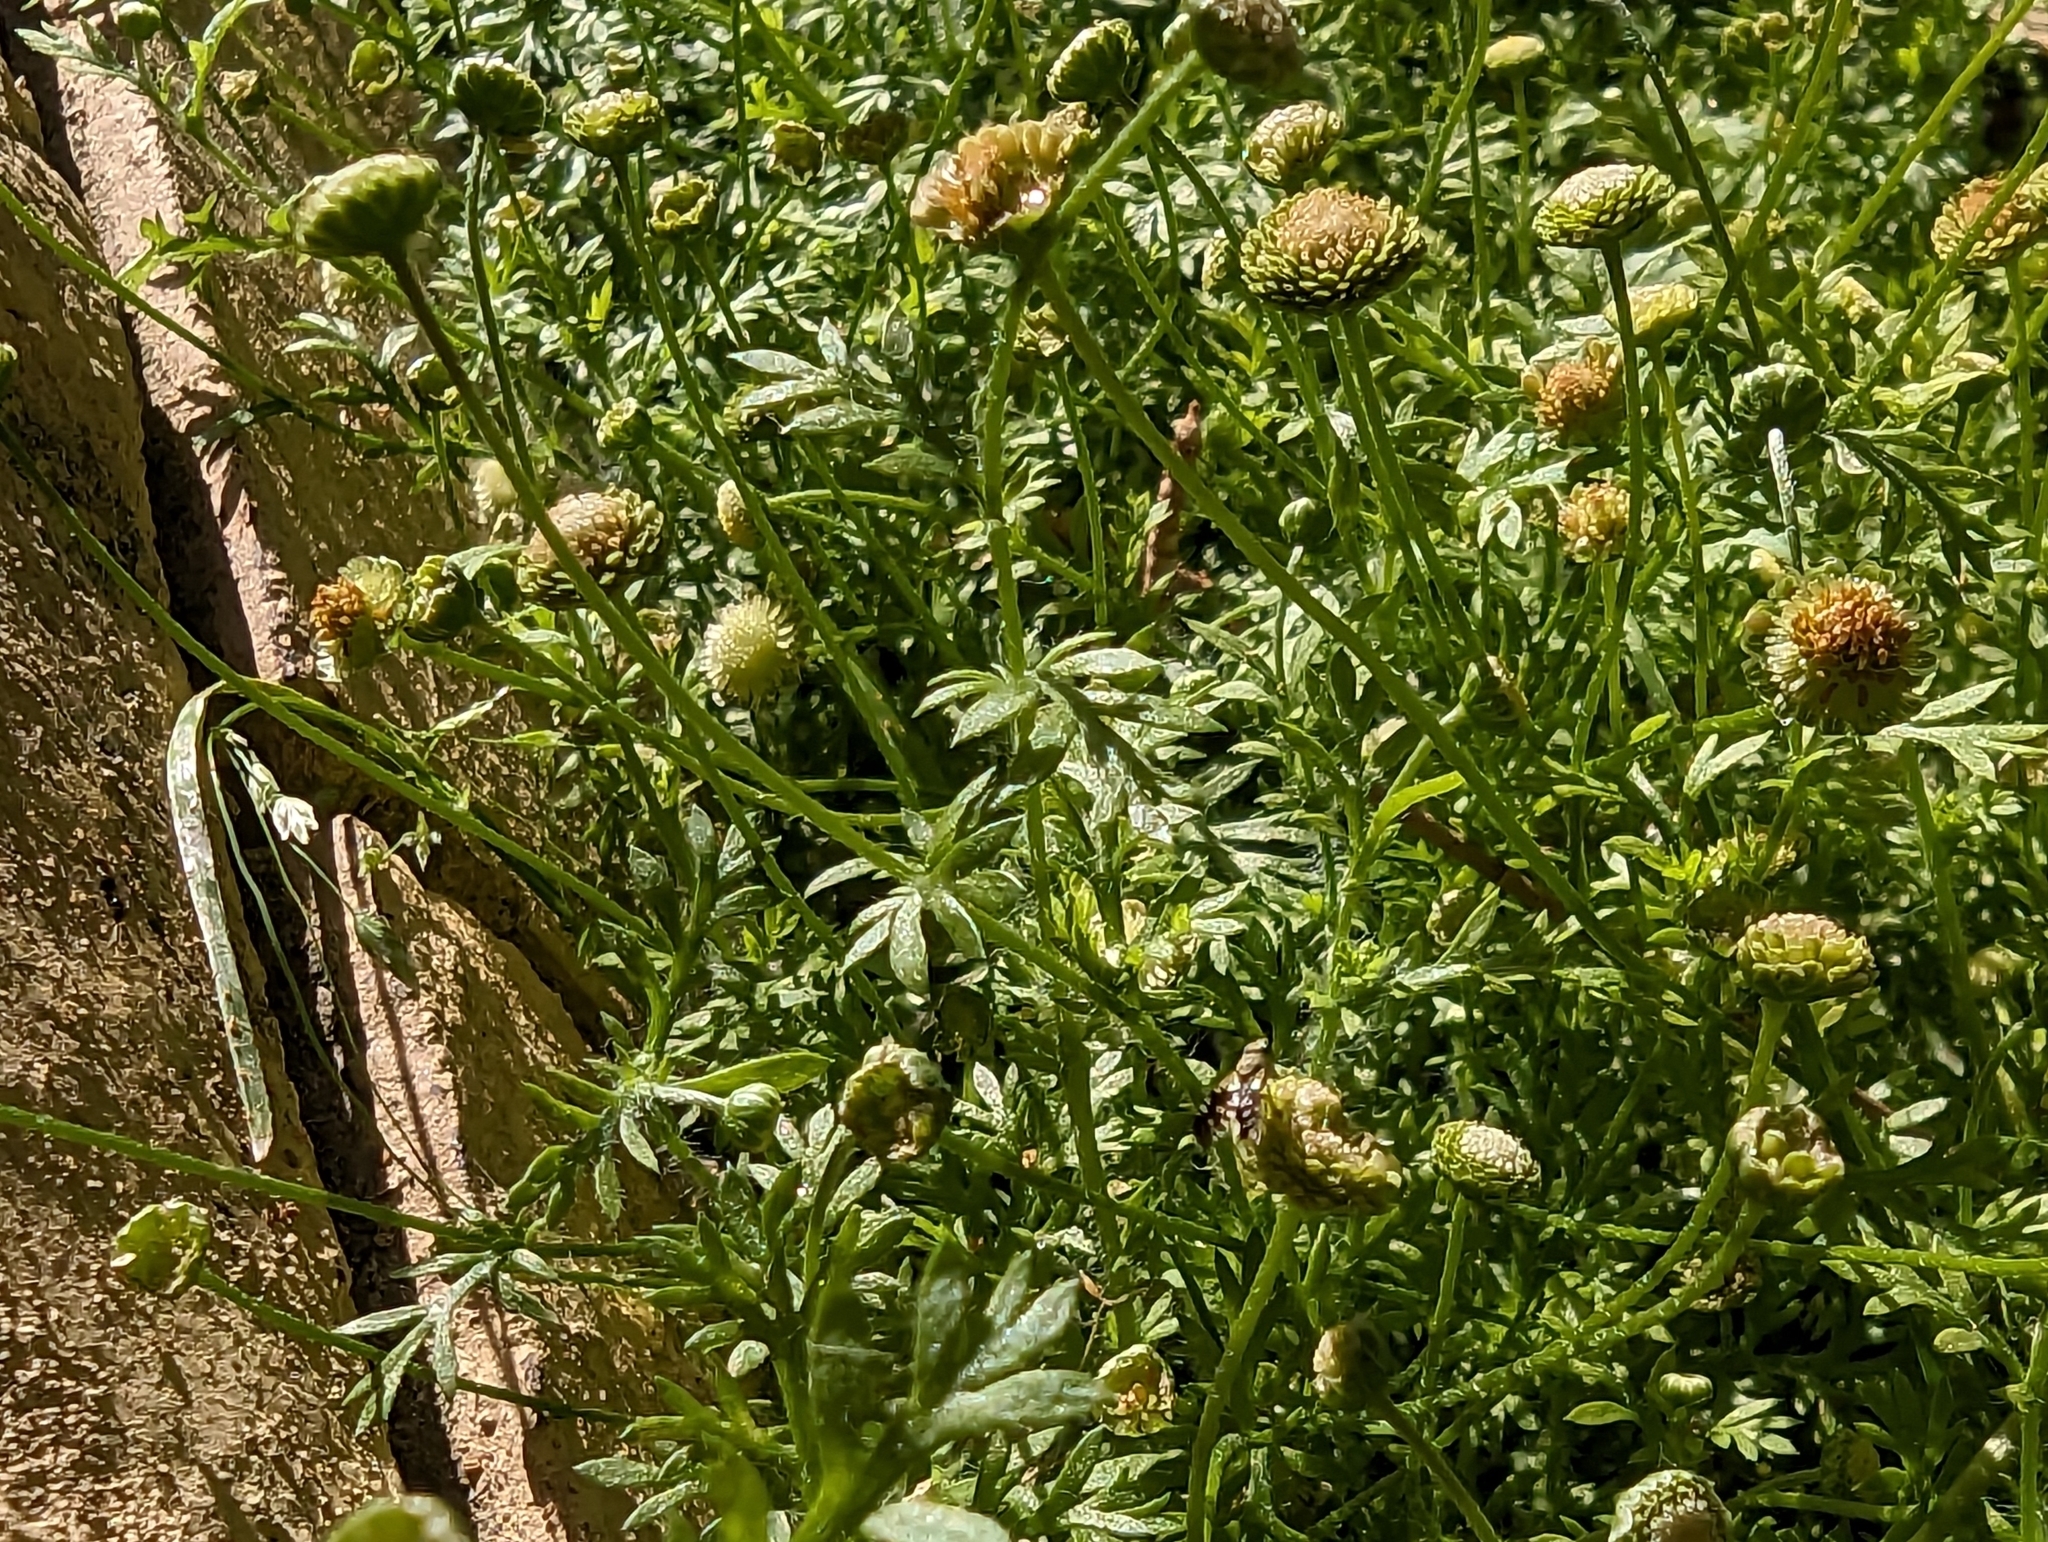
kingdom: Plantae
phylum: Tracheophyta
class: Magnoliopsida
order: Asterales
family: Asteraceae
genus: Cotula
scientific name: Cotula australis
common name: Australian waterbuttons
